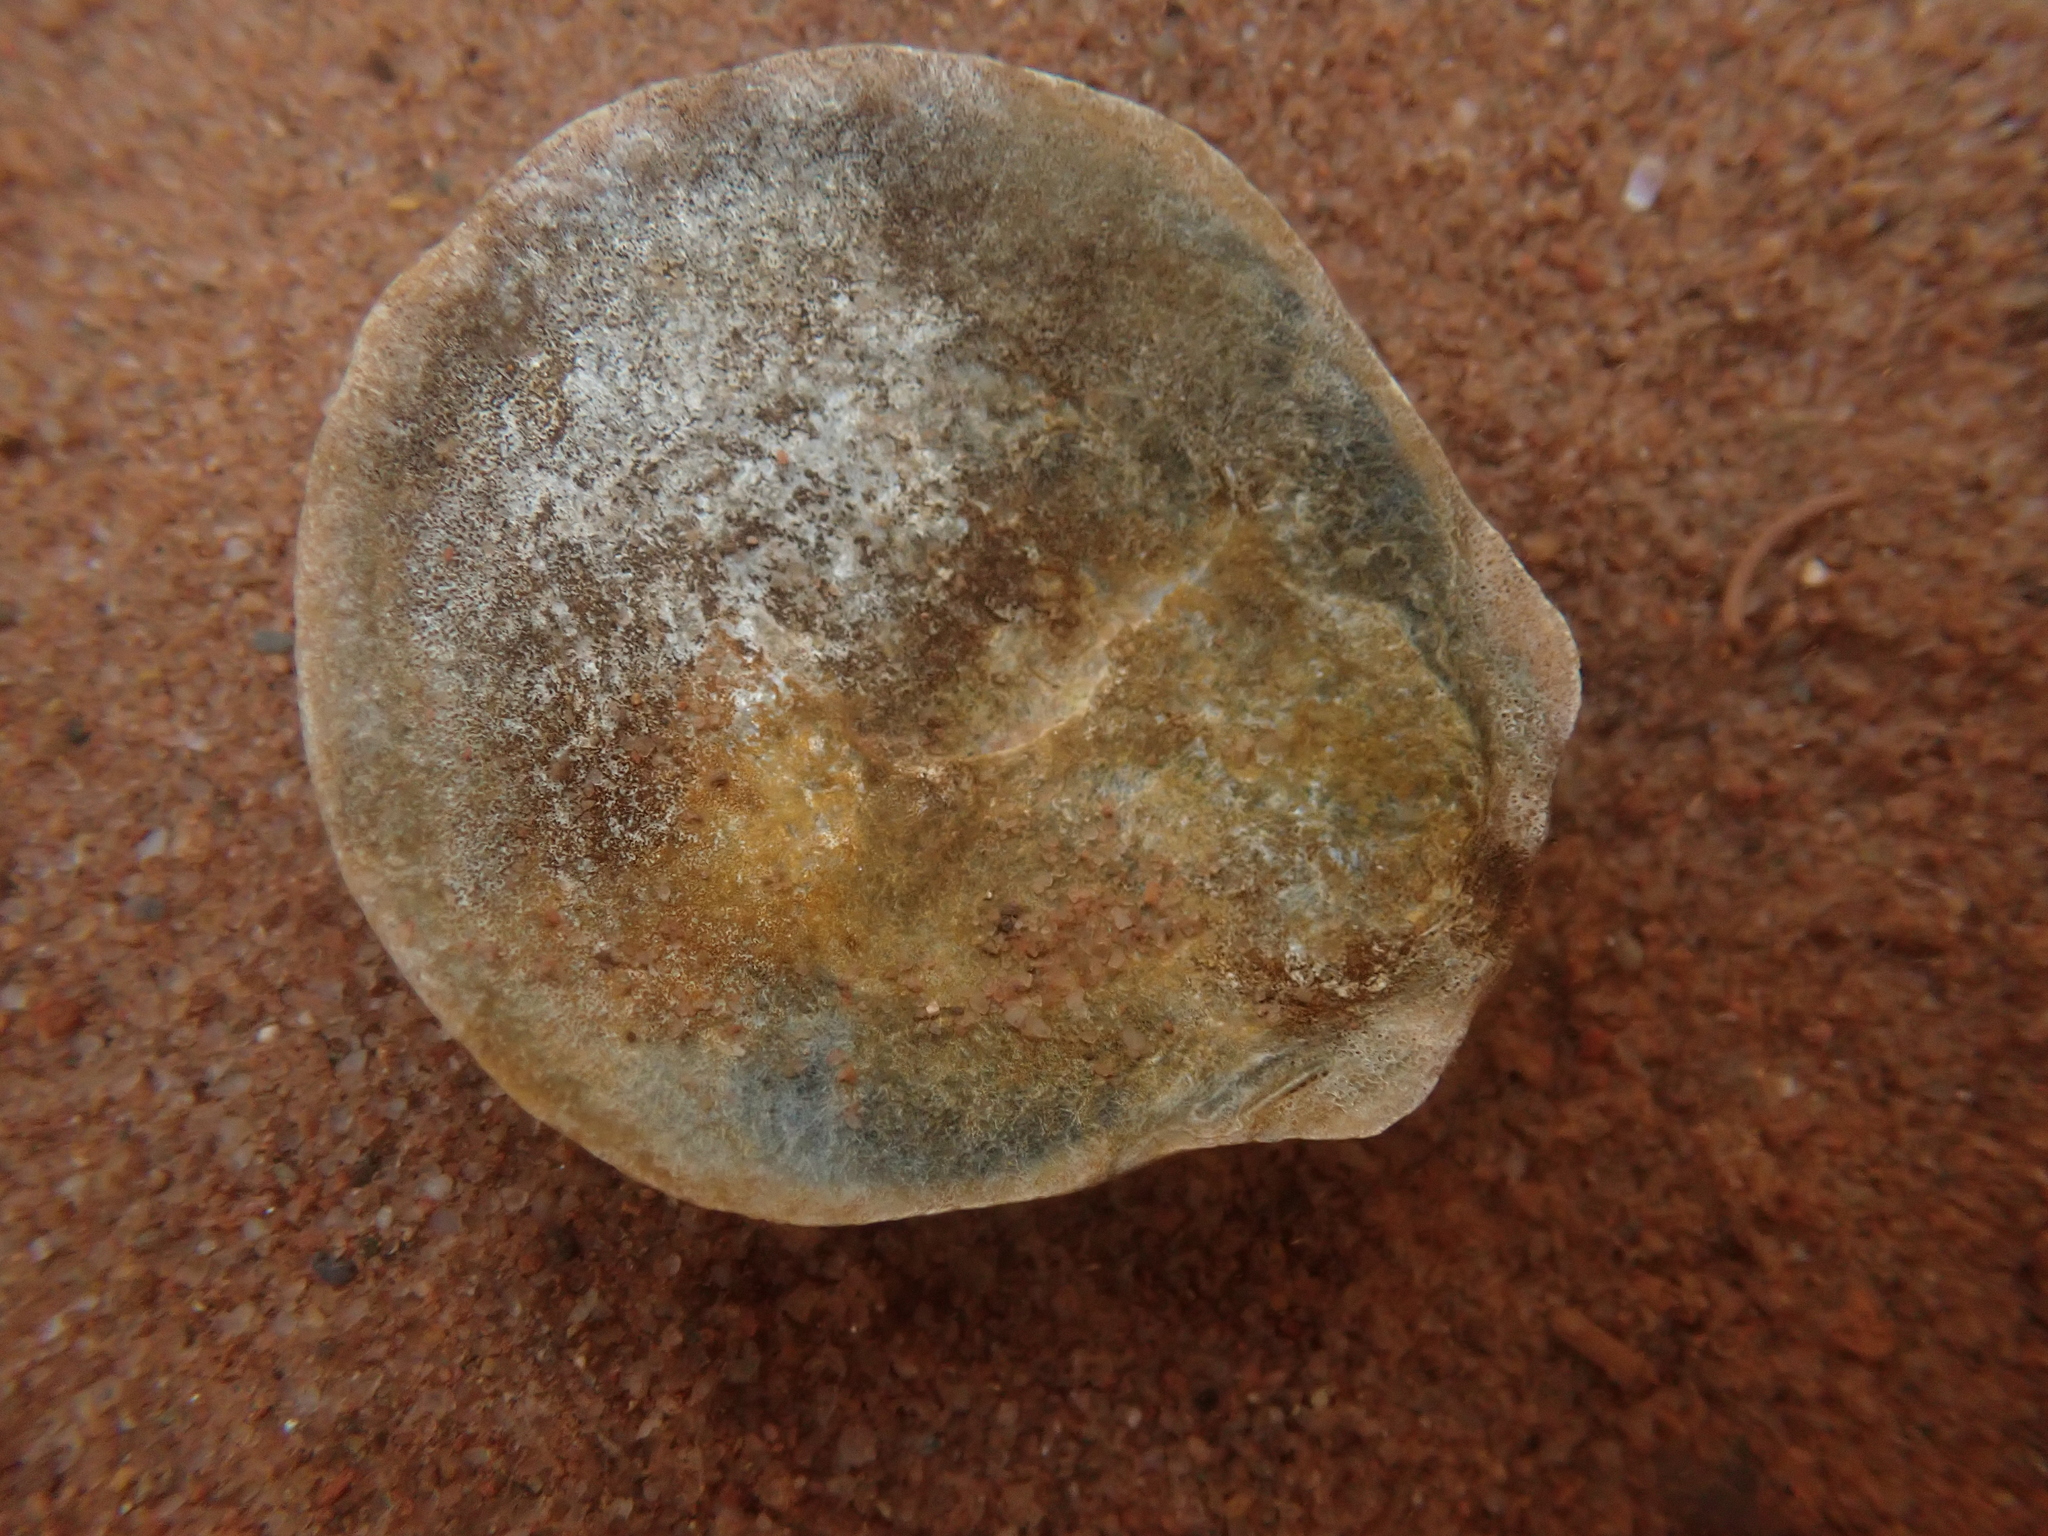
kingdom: Animalia
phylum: Mollusca
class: Bivalvia
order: Pectinida
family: Pectinidae
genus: Placopecten
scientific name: Placopecten magellanicus
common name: American sea scallop
